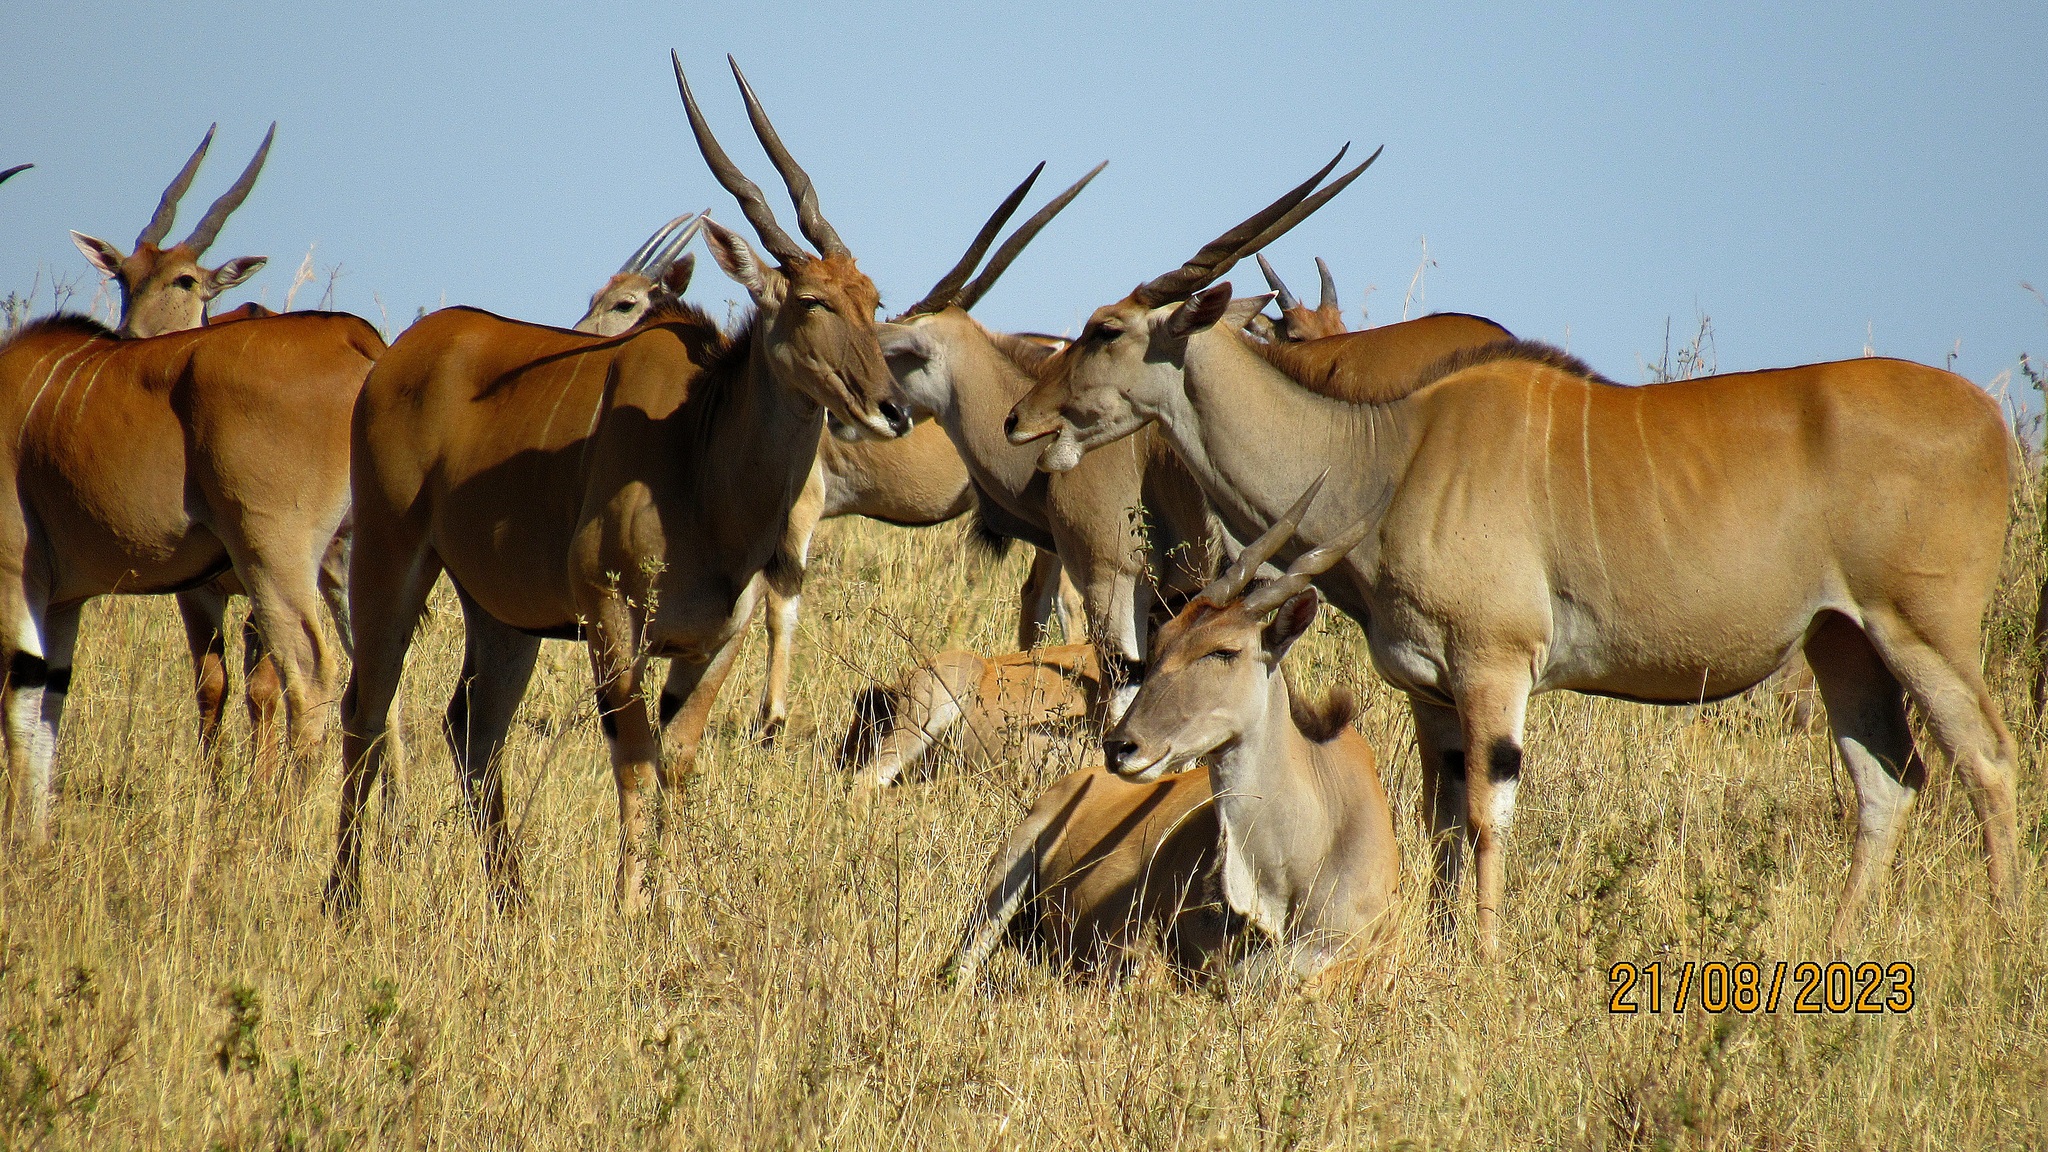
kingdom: Animalia
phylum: Chordata
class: Mammalia
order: Artiodactyla
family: Bovidae
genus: Taurotragus
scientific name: Taurotragus oryx
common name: Common eland
